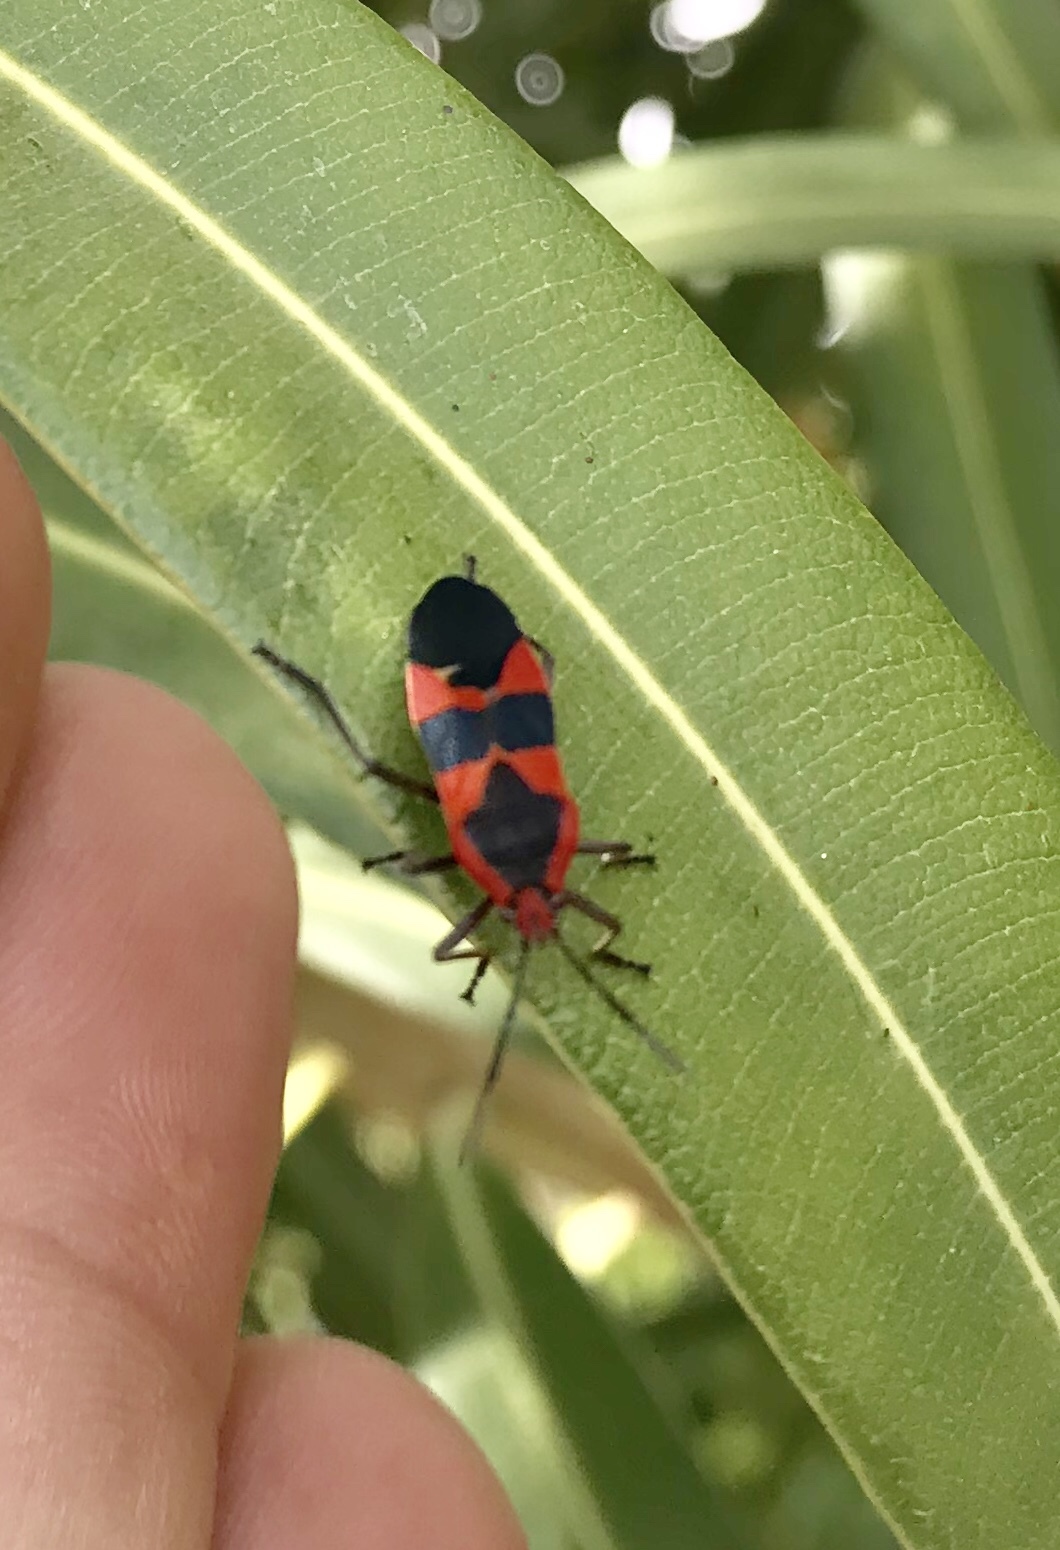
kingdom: Animalia
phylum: Arthropoda
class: Insecta
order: Hemiptera
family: Lygaeidae
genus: Oncopeltus
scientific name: Oncopeltus fasciatus
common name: Large milkweed bug
